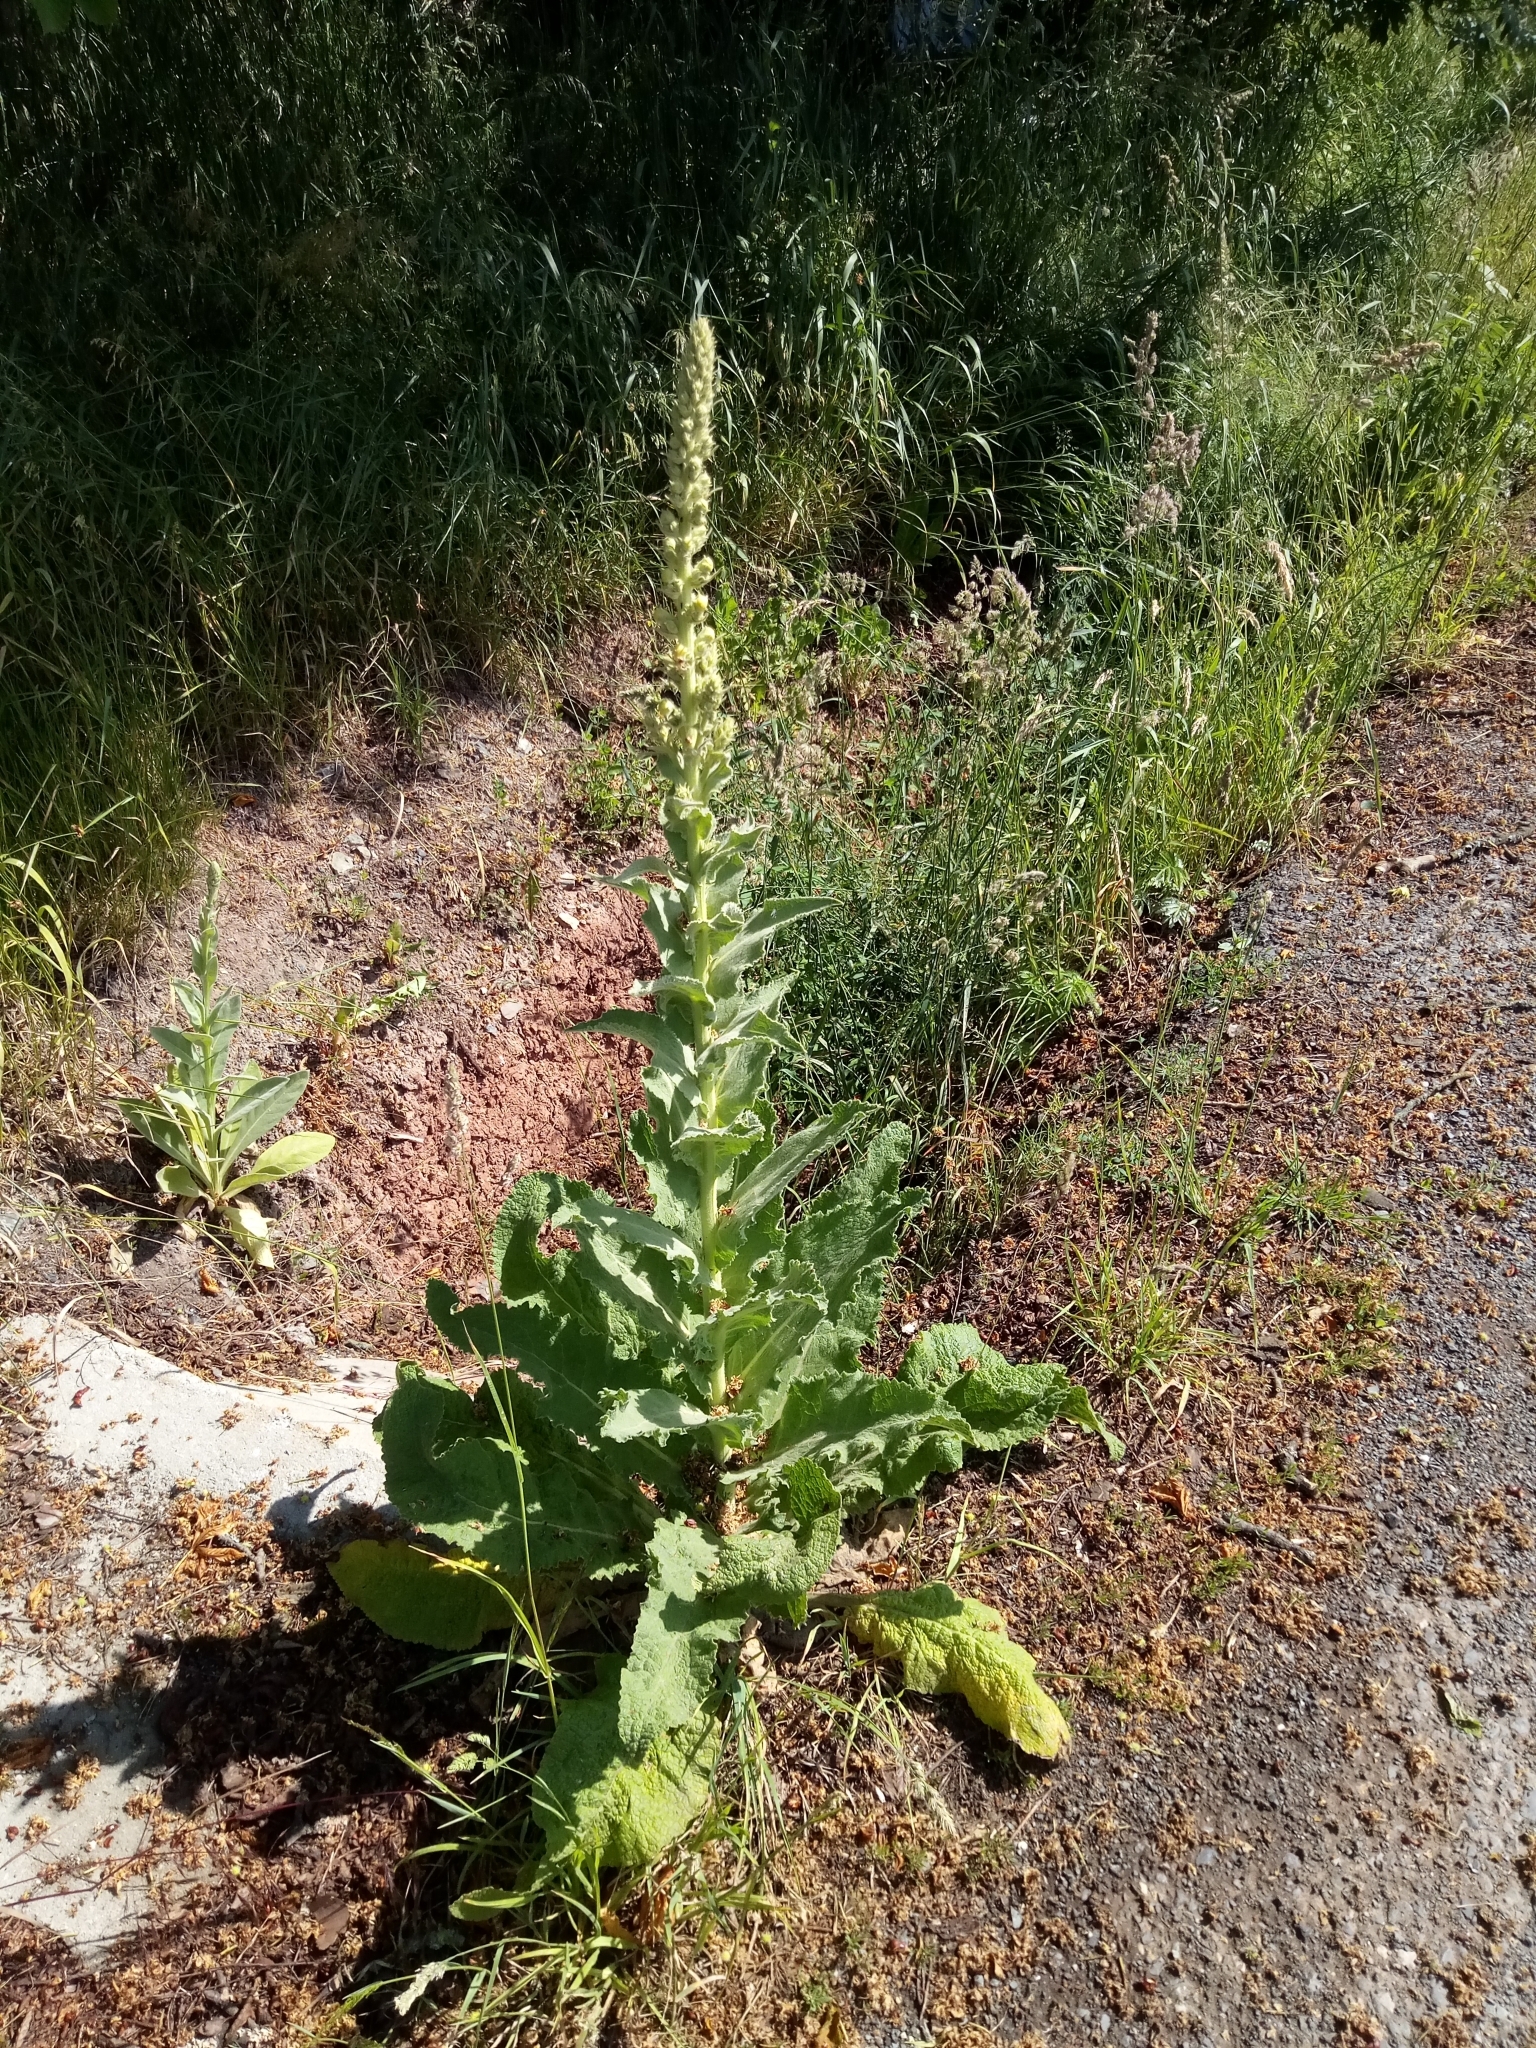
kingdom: Plantae
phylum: Tracheophyta
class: Magnoliopsida
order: Lamiales
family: Scrophulariaceae
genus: Verbascum
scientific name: Verbascum phlomoides
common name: Orange mullein
